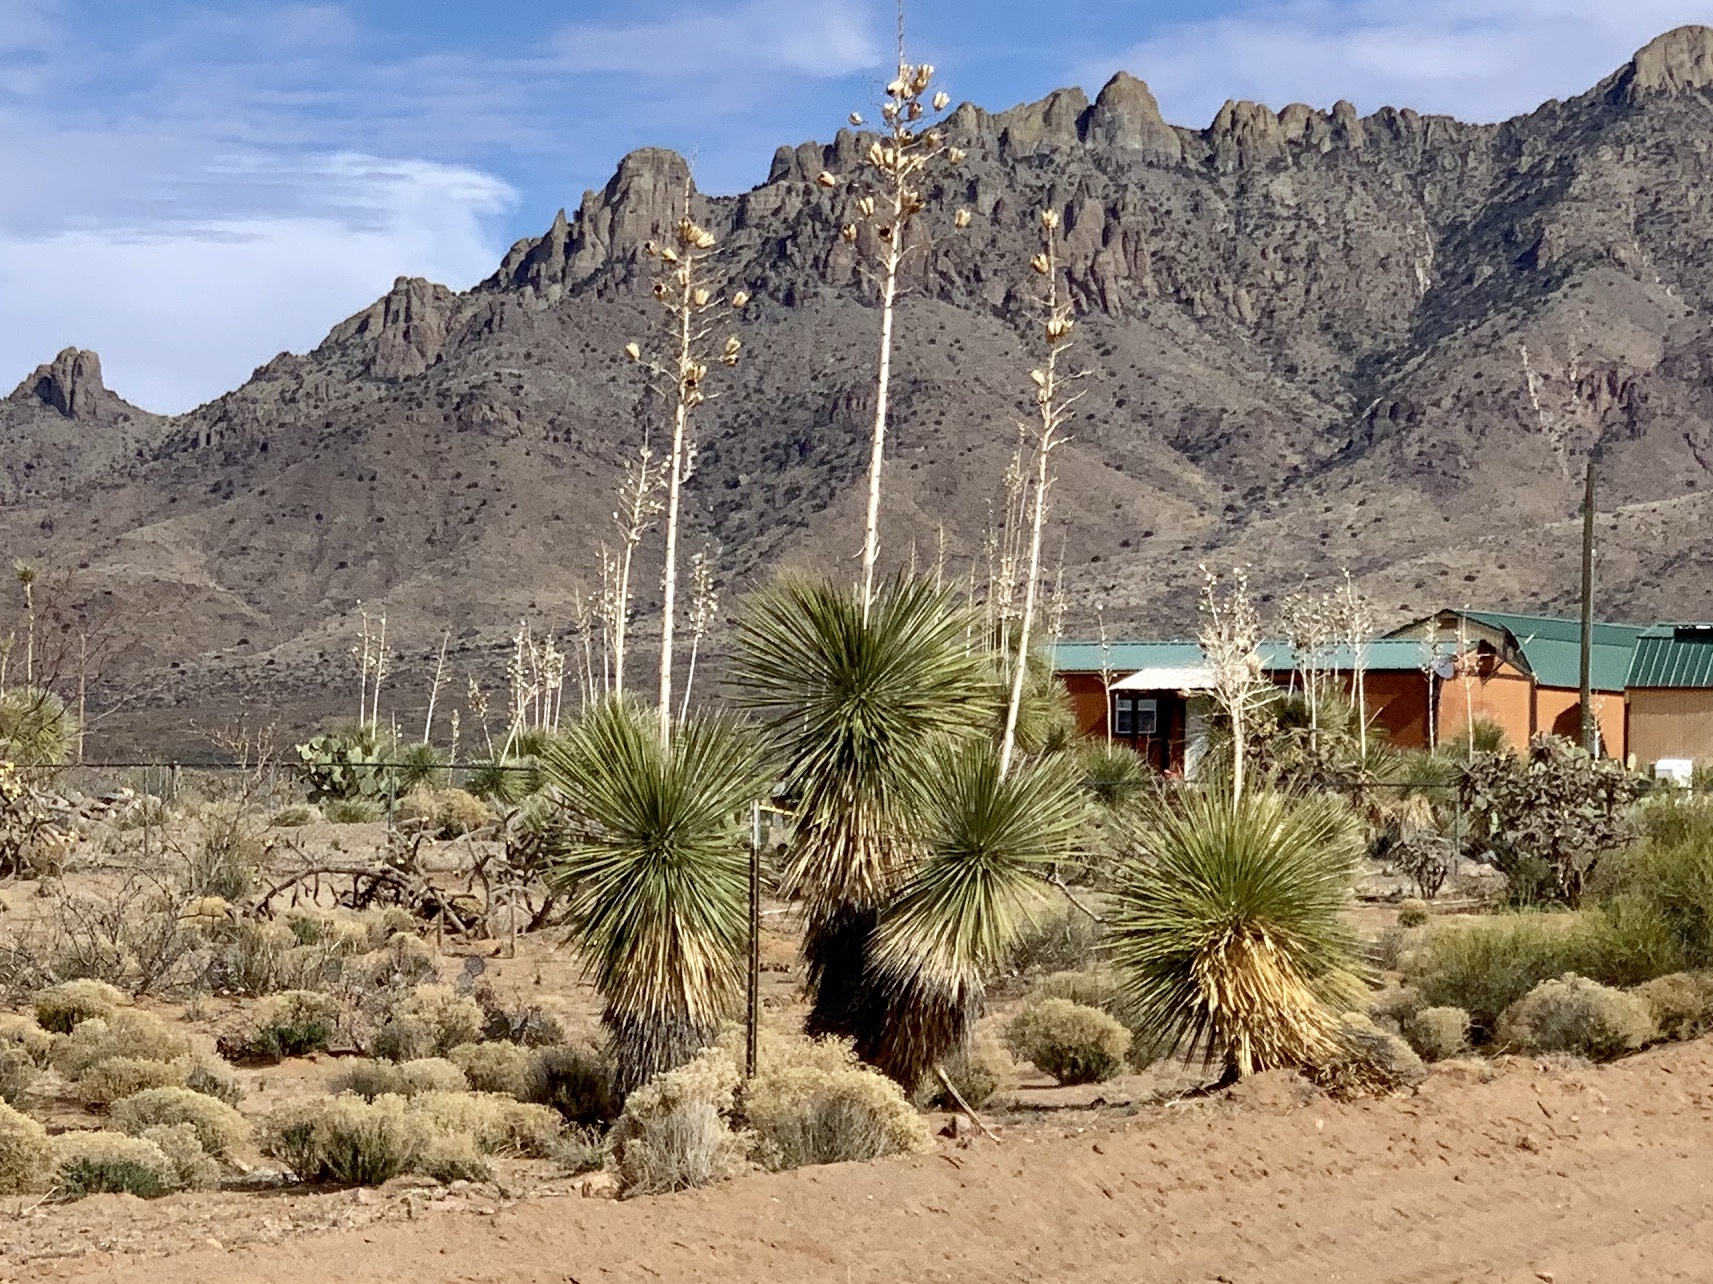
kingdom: Plantae
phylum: Tracheophyta
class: Liliopsida
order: Asparagales
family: Asparagaceae
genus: Yucca
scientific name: Yucca elata
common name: Palmella
